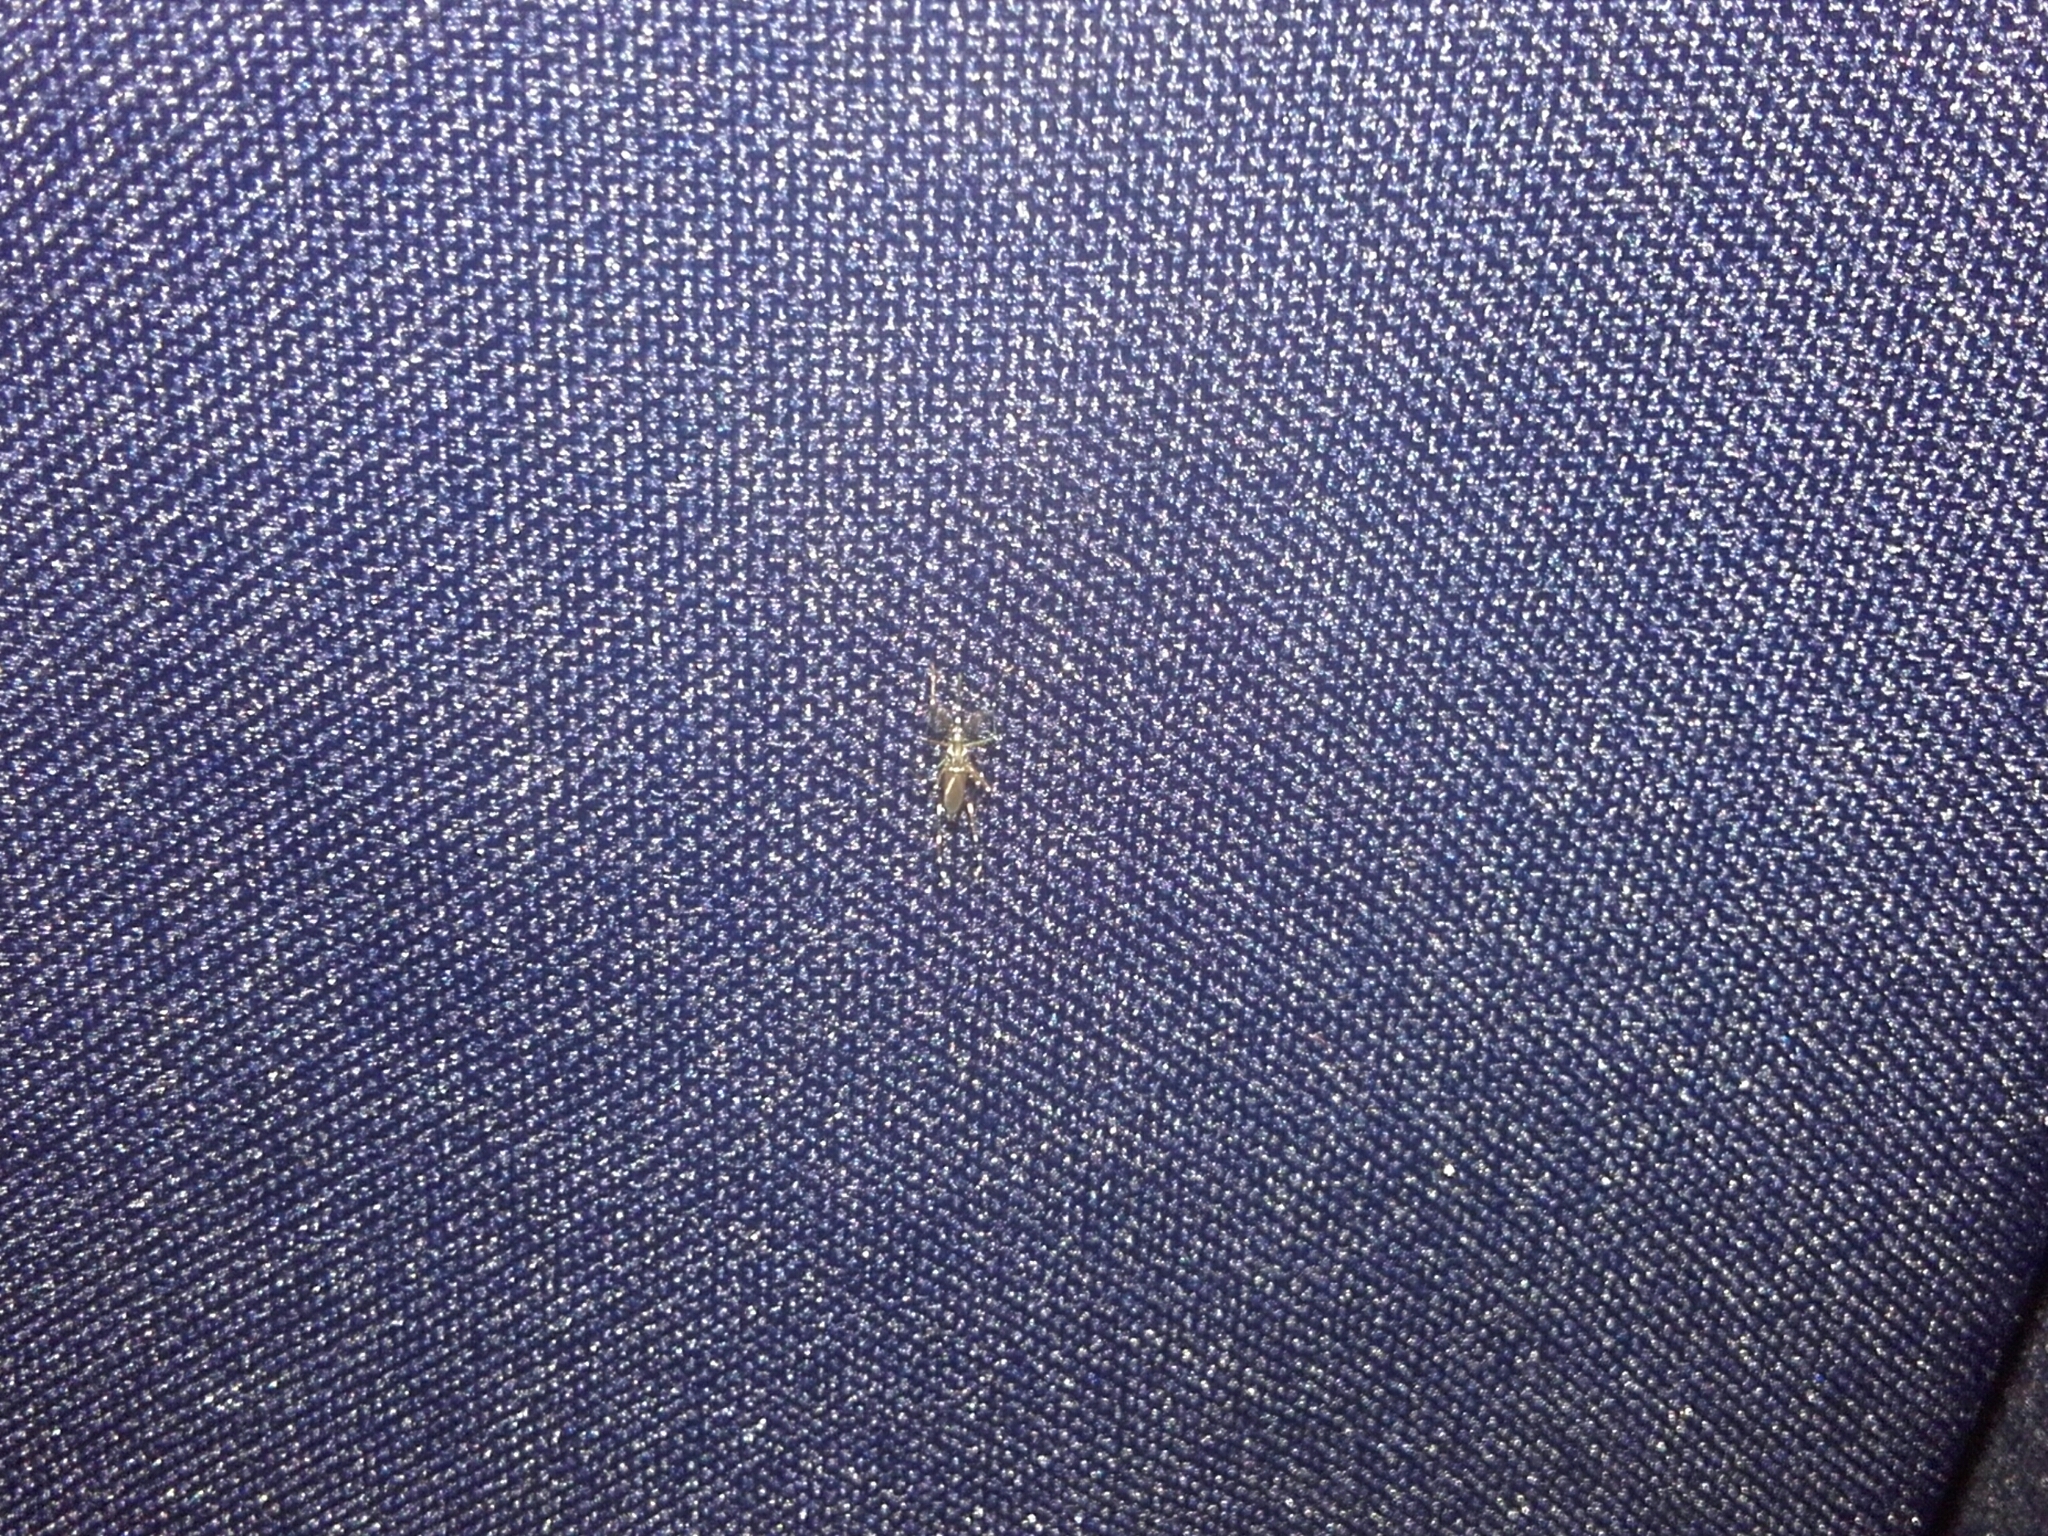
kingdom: Animalia
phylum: Arthropoda
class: Insecta
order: Diptera
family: Culicidae
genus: Aedes
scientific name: Aedes aegypti
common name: Yellow fever mosquito
